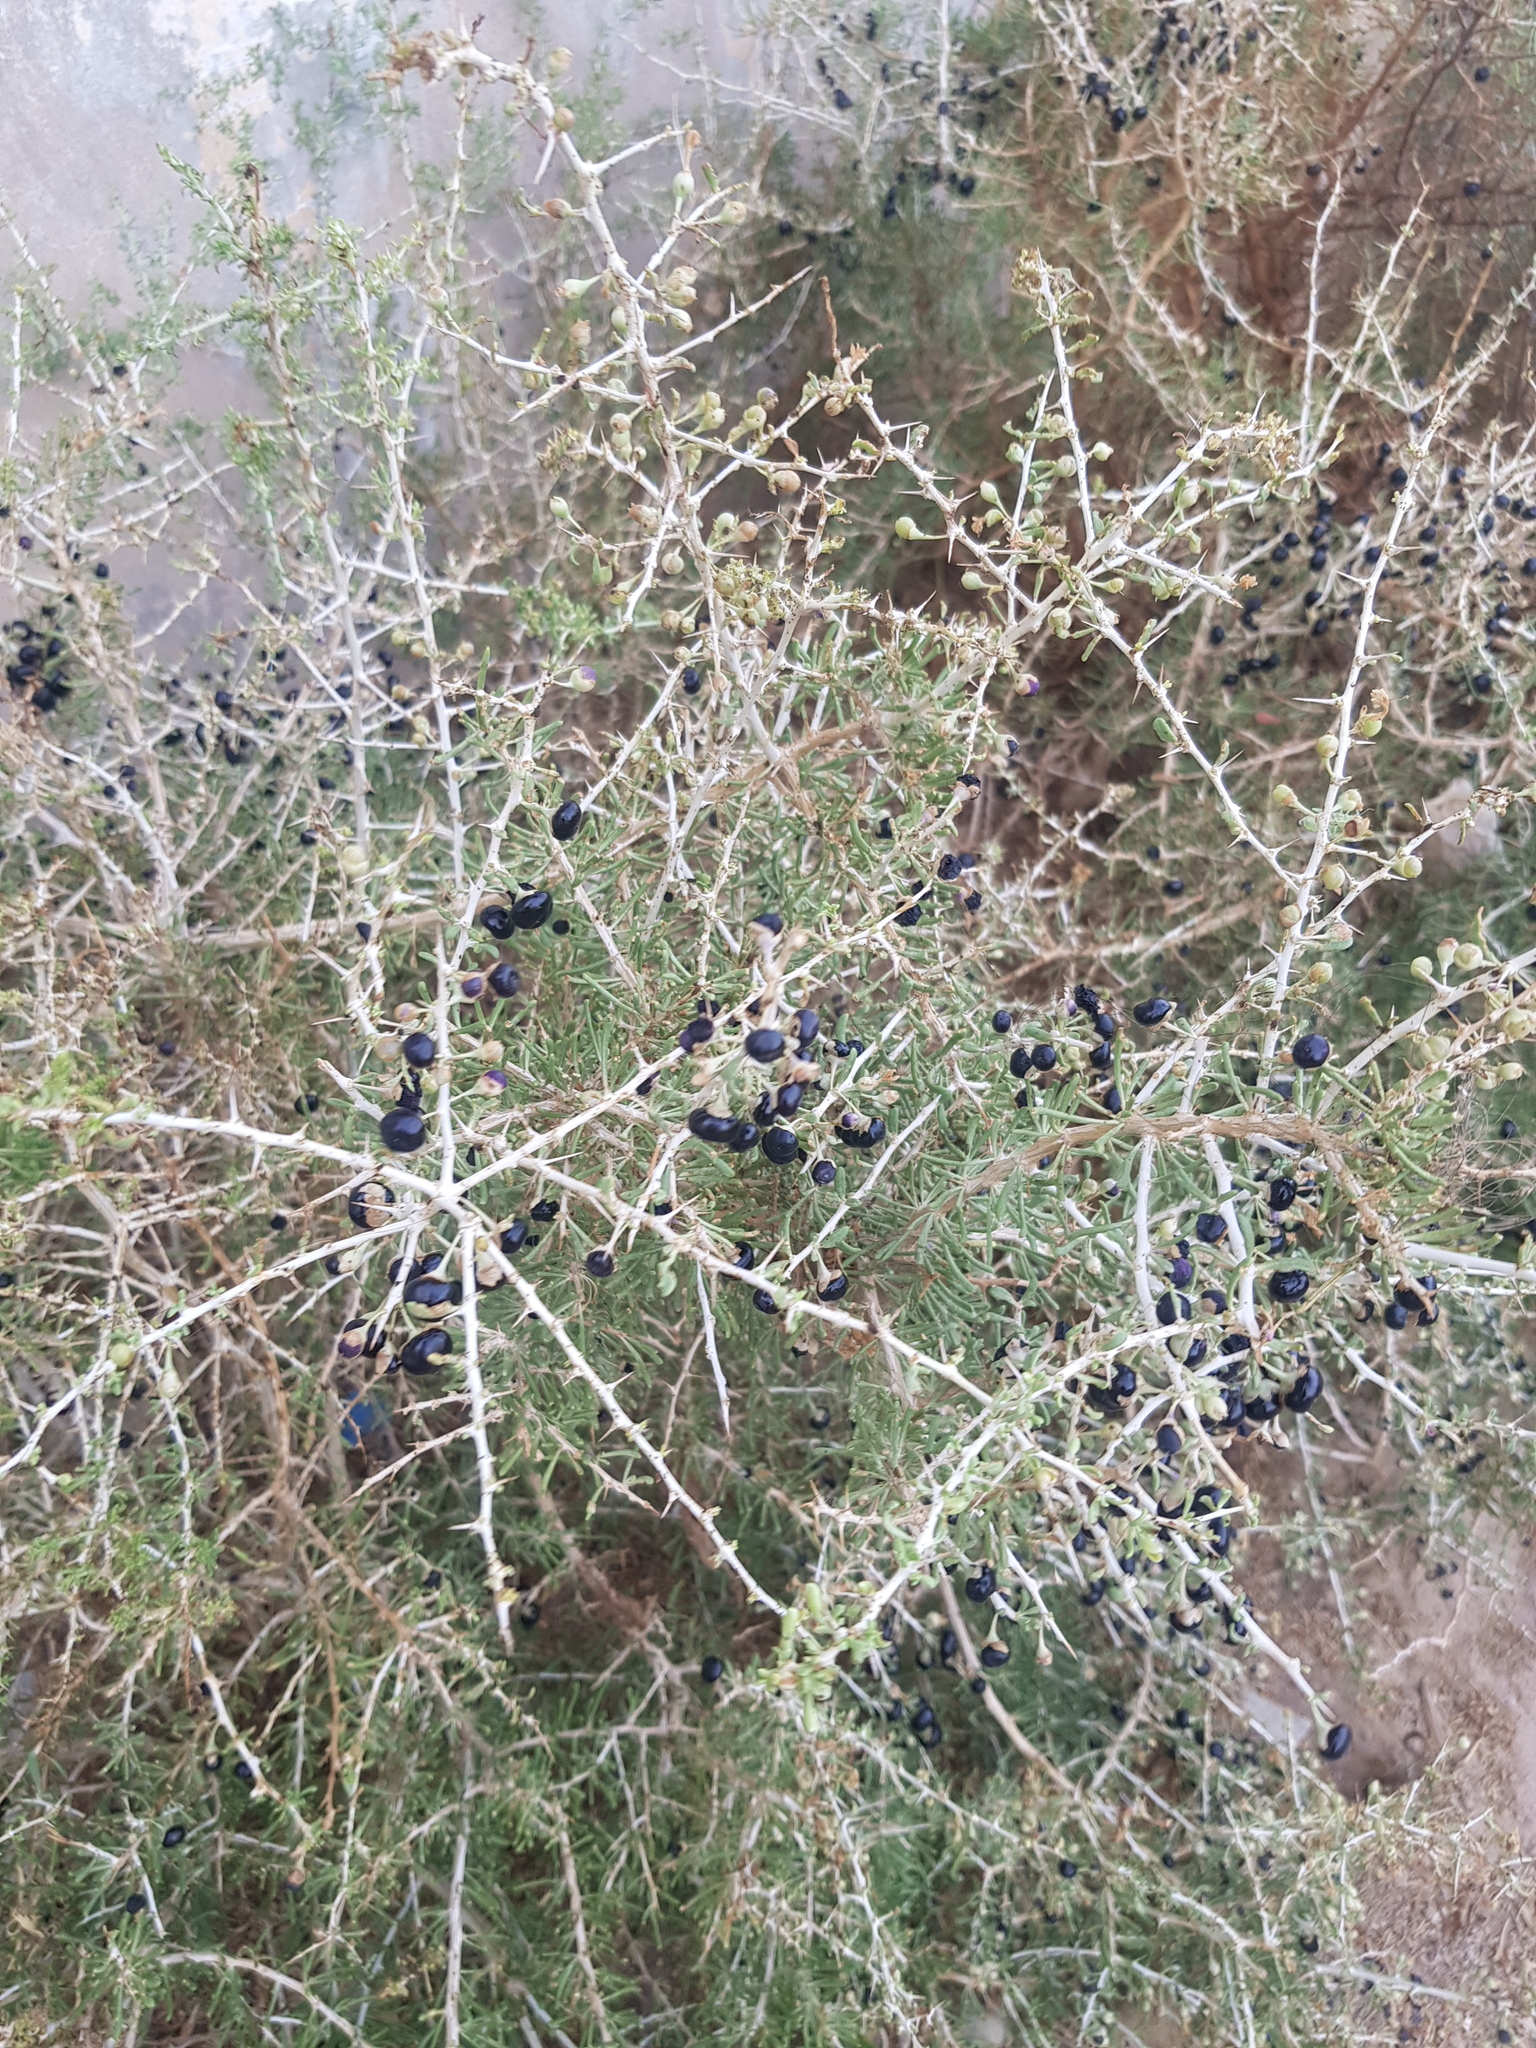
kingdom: Plantae
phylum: Tracheophyta
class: Magnoliopsida
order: Solanales
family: Solanaceae
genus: Lycium
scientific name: Lycium ruthenicum
